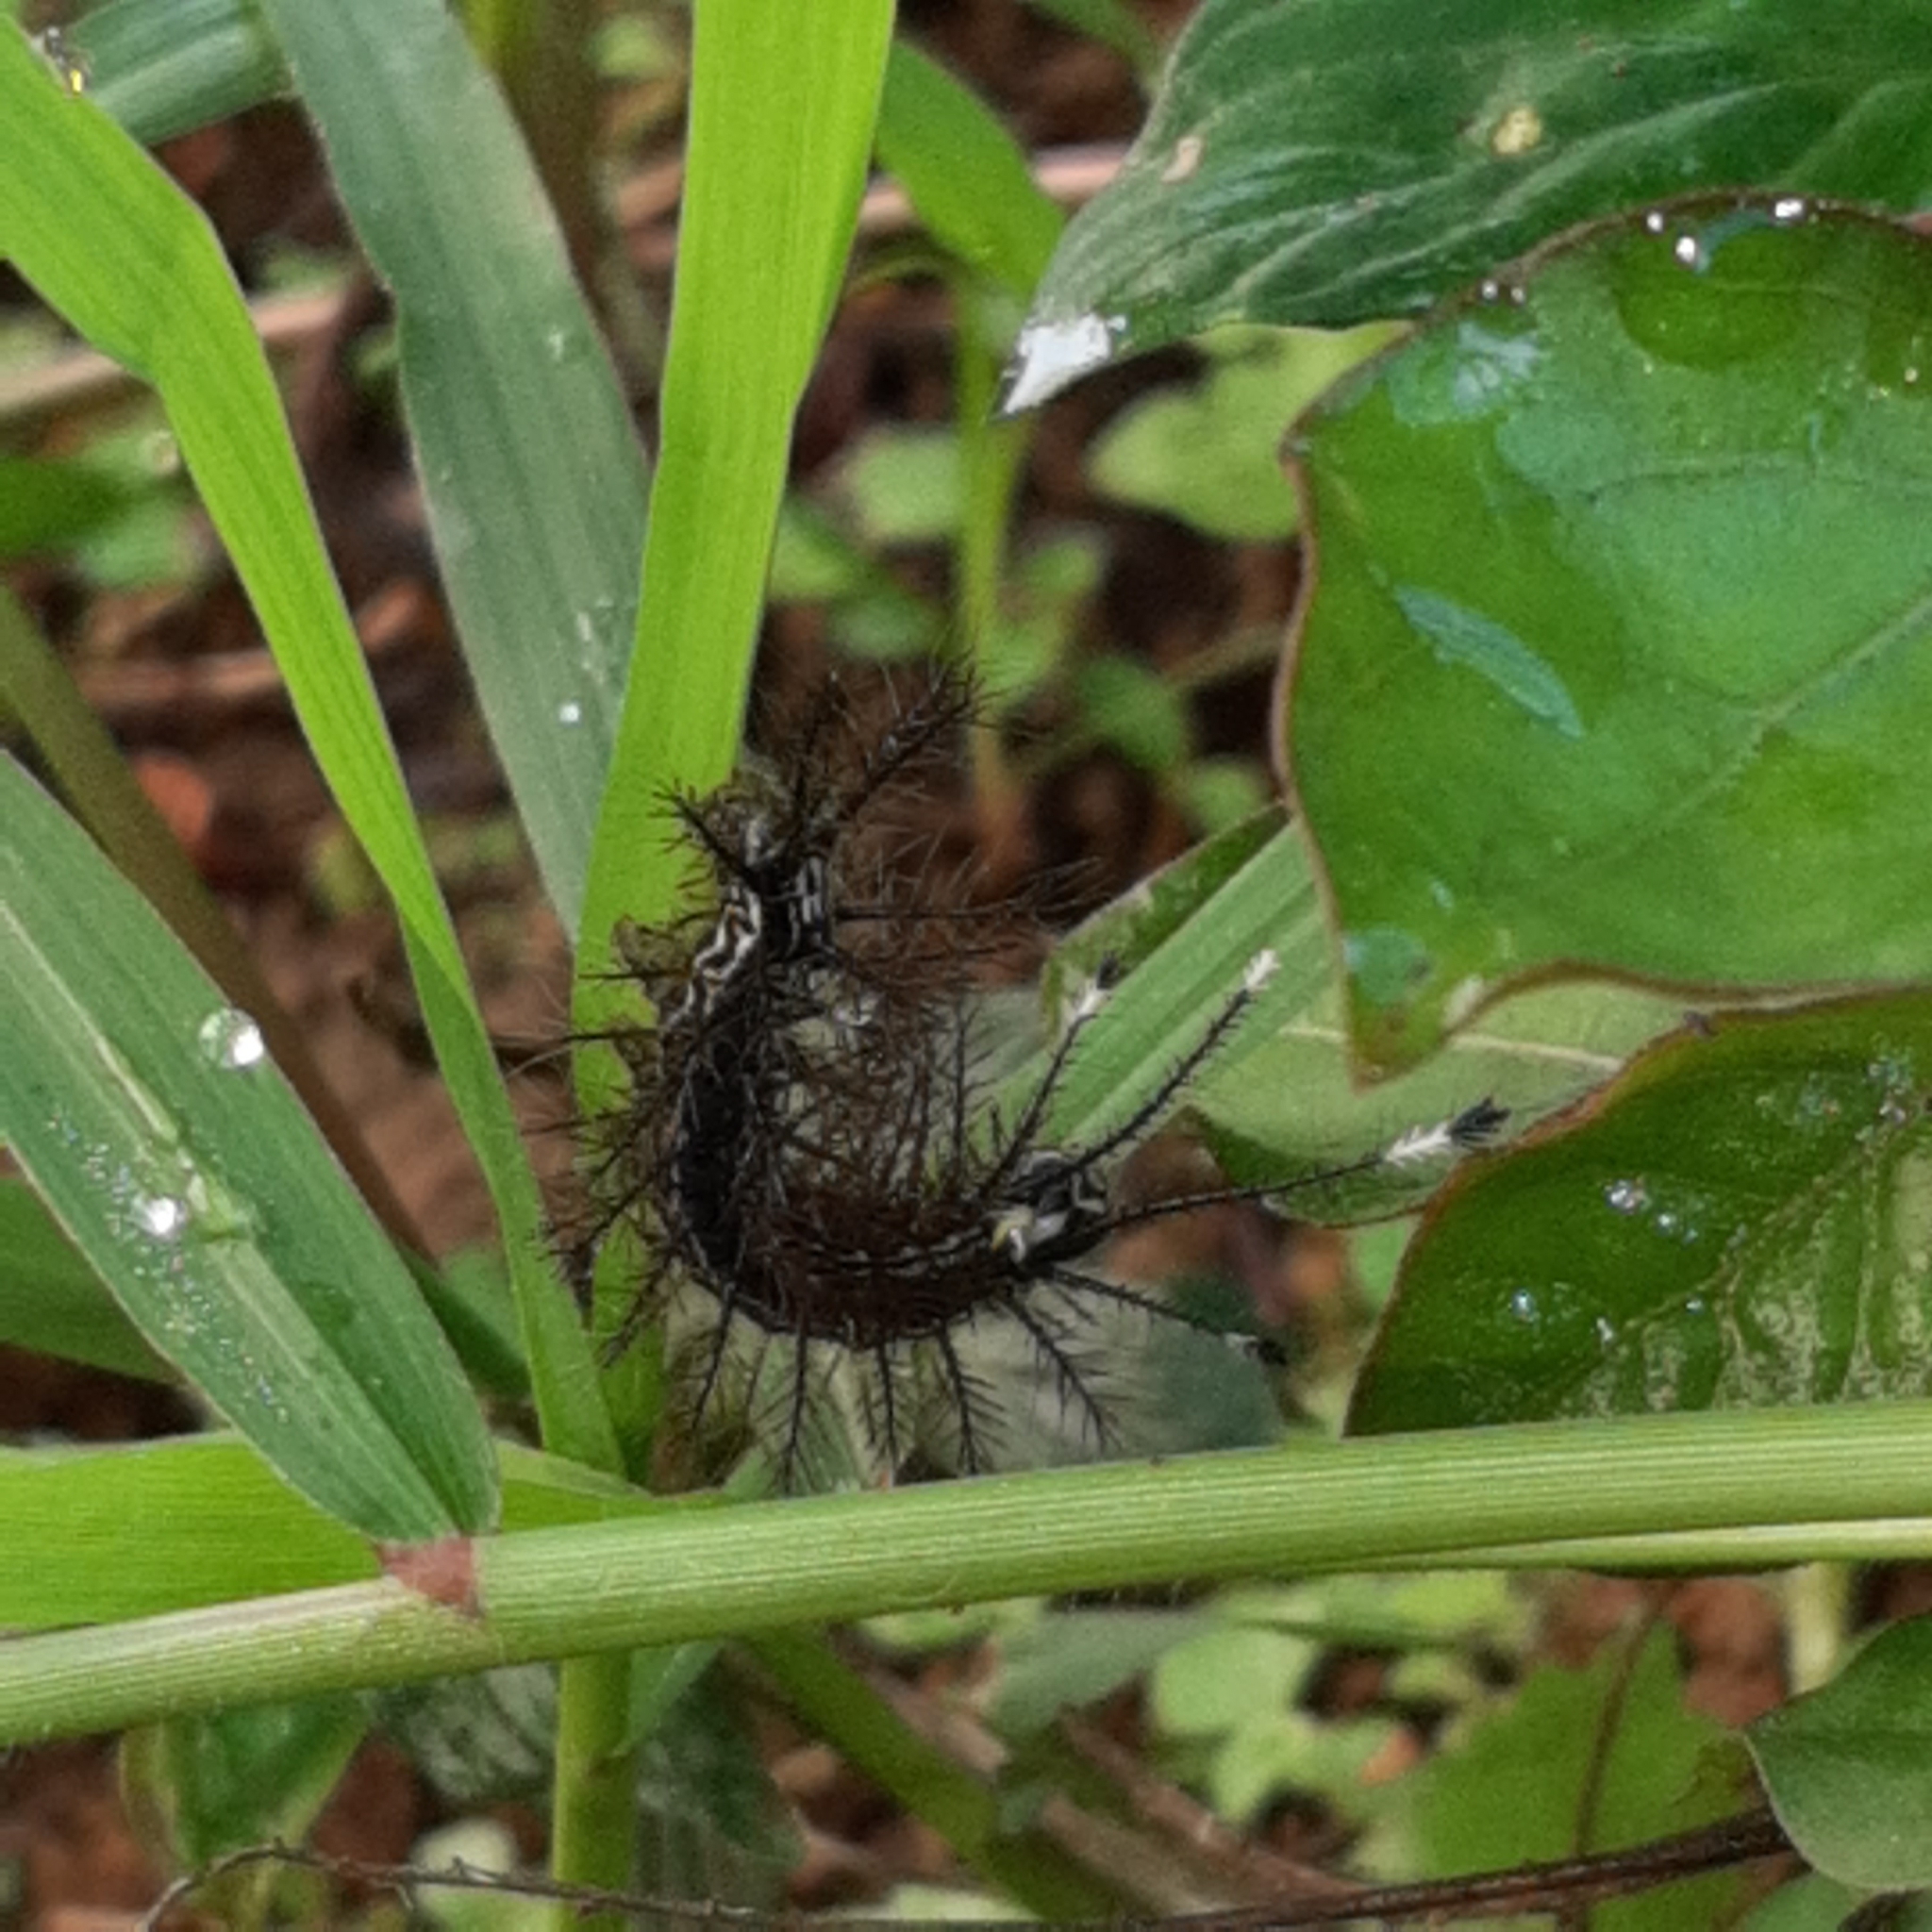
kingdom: Animalia
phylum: Arthropoda
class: Insecta
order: Lepidoptera
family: Saturniidae
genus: Hylesia
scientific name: Hylesia continua
